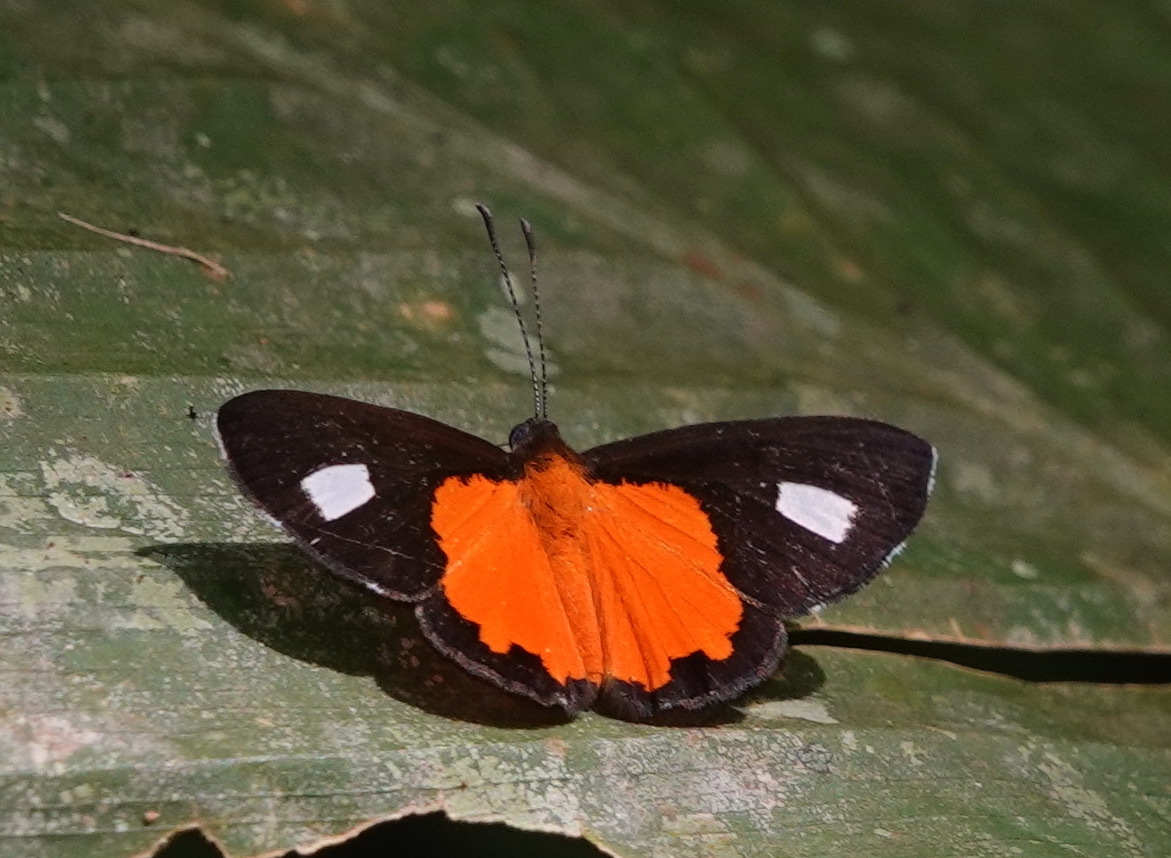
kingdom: Animalia
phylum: Arthropoda
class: Insecta
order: Lepidoptera
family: Lycaenidae
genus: Mesene
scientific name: Mesene hya
